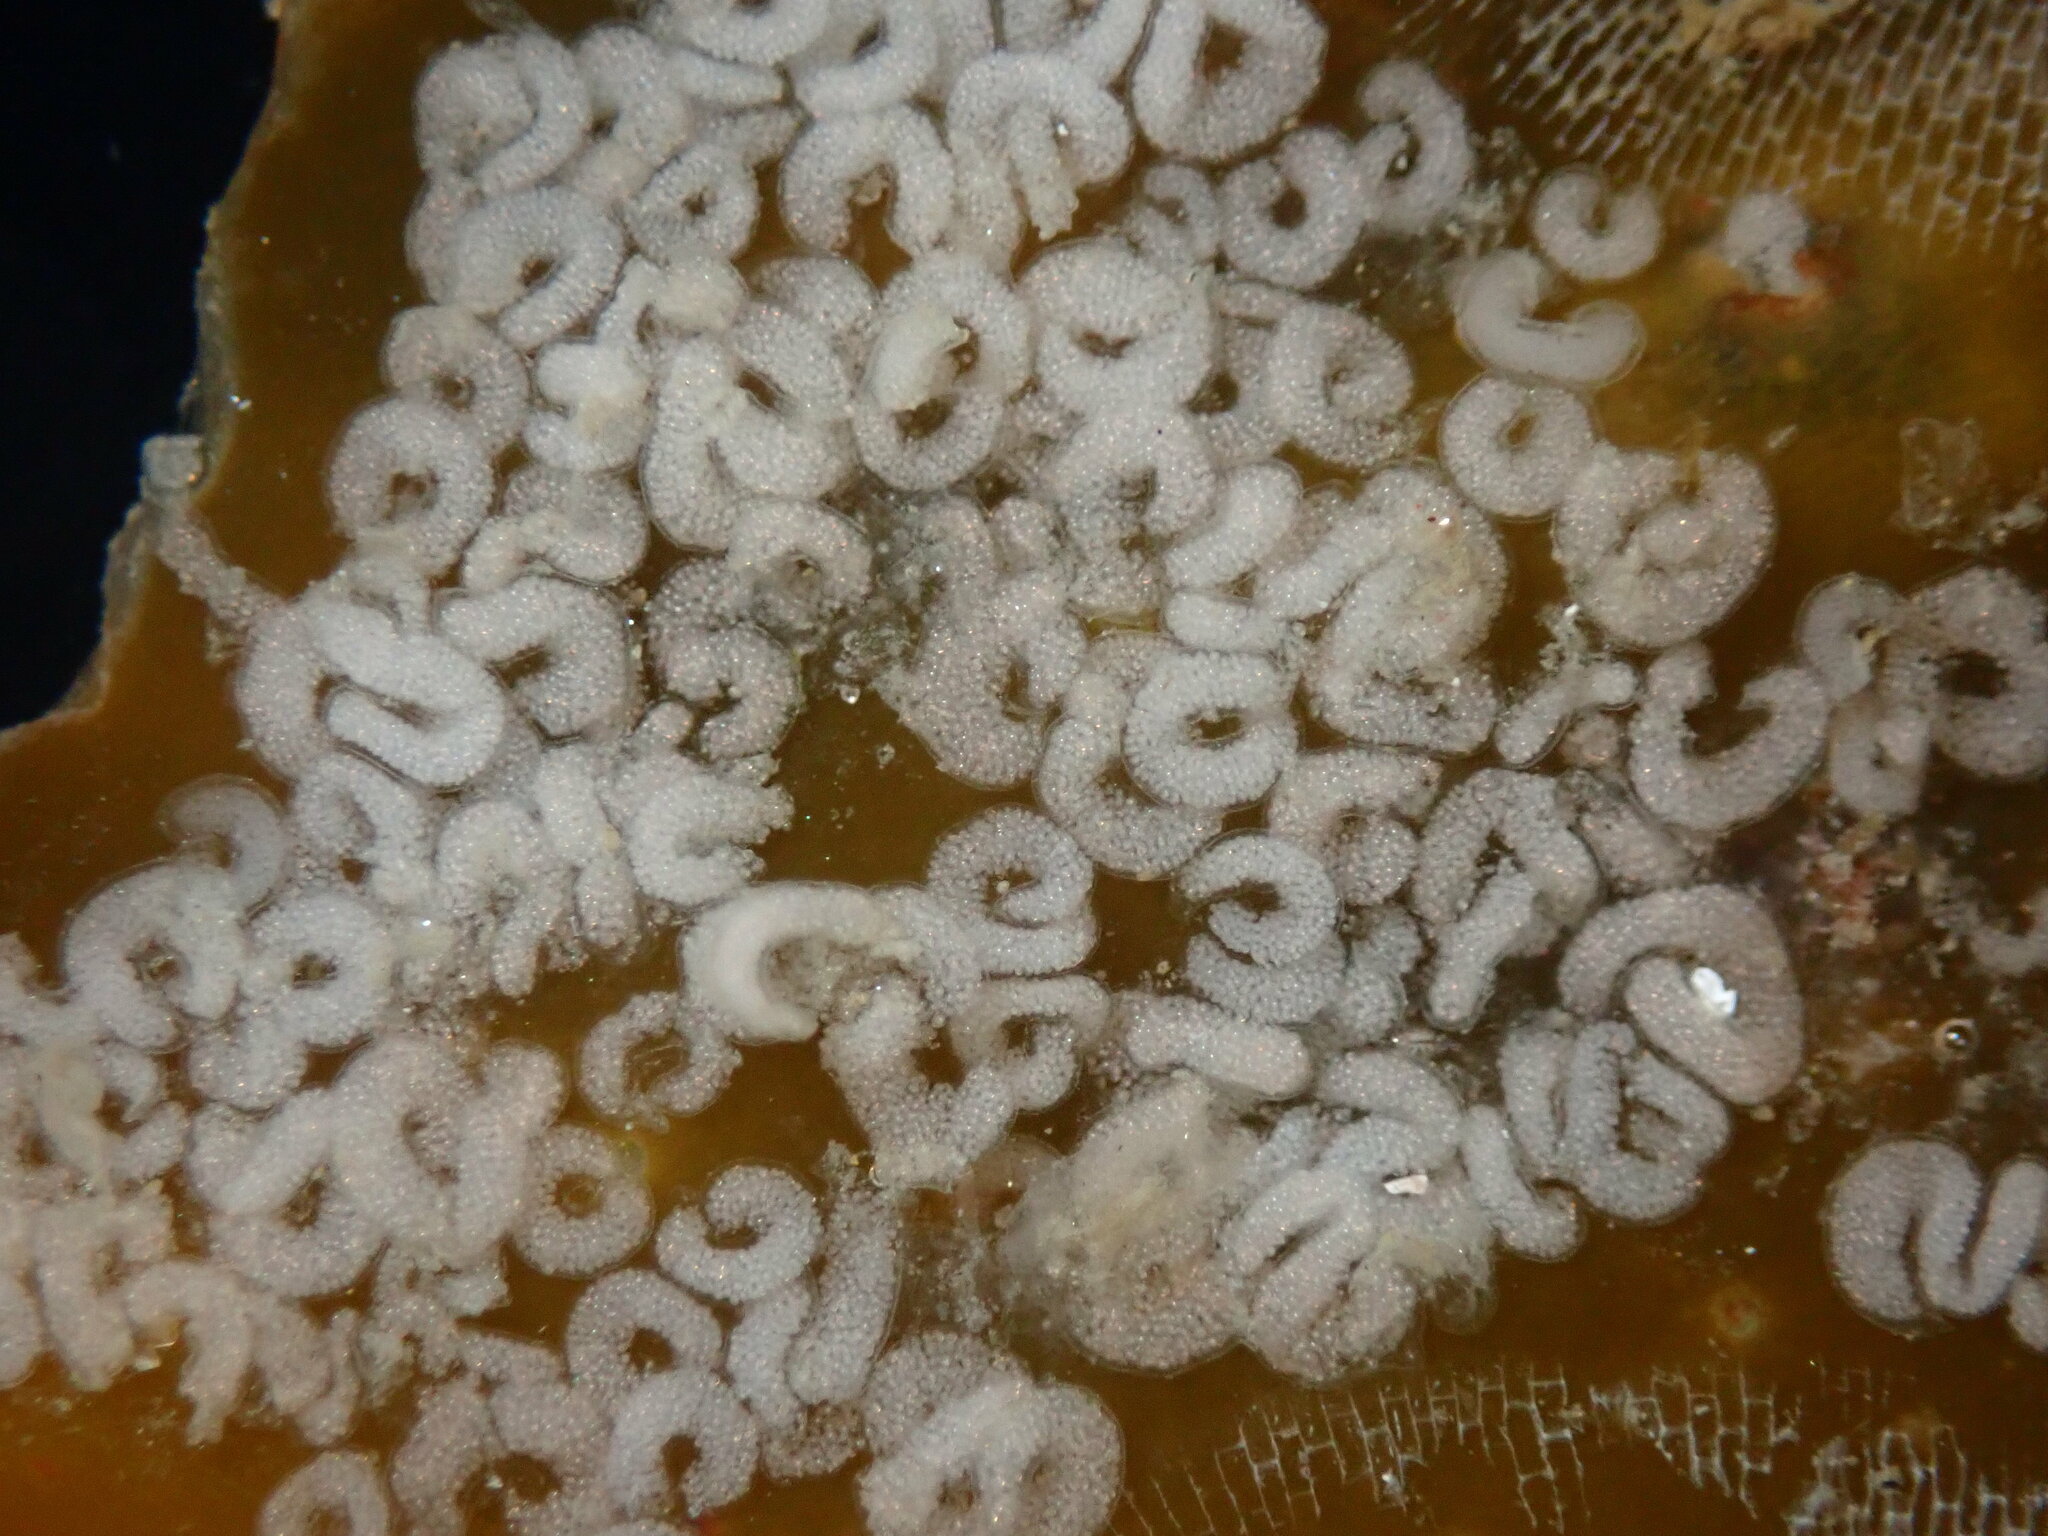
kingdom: Animalia
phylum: Mollusca
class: Gastropoda
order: Nudibranchia
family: Corambidae
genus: Corambe
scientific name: Corambe steinbergae
